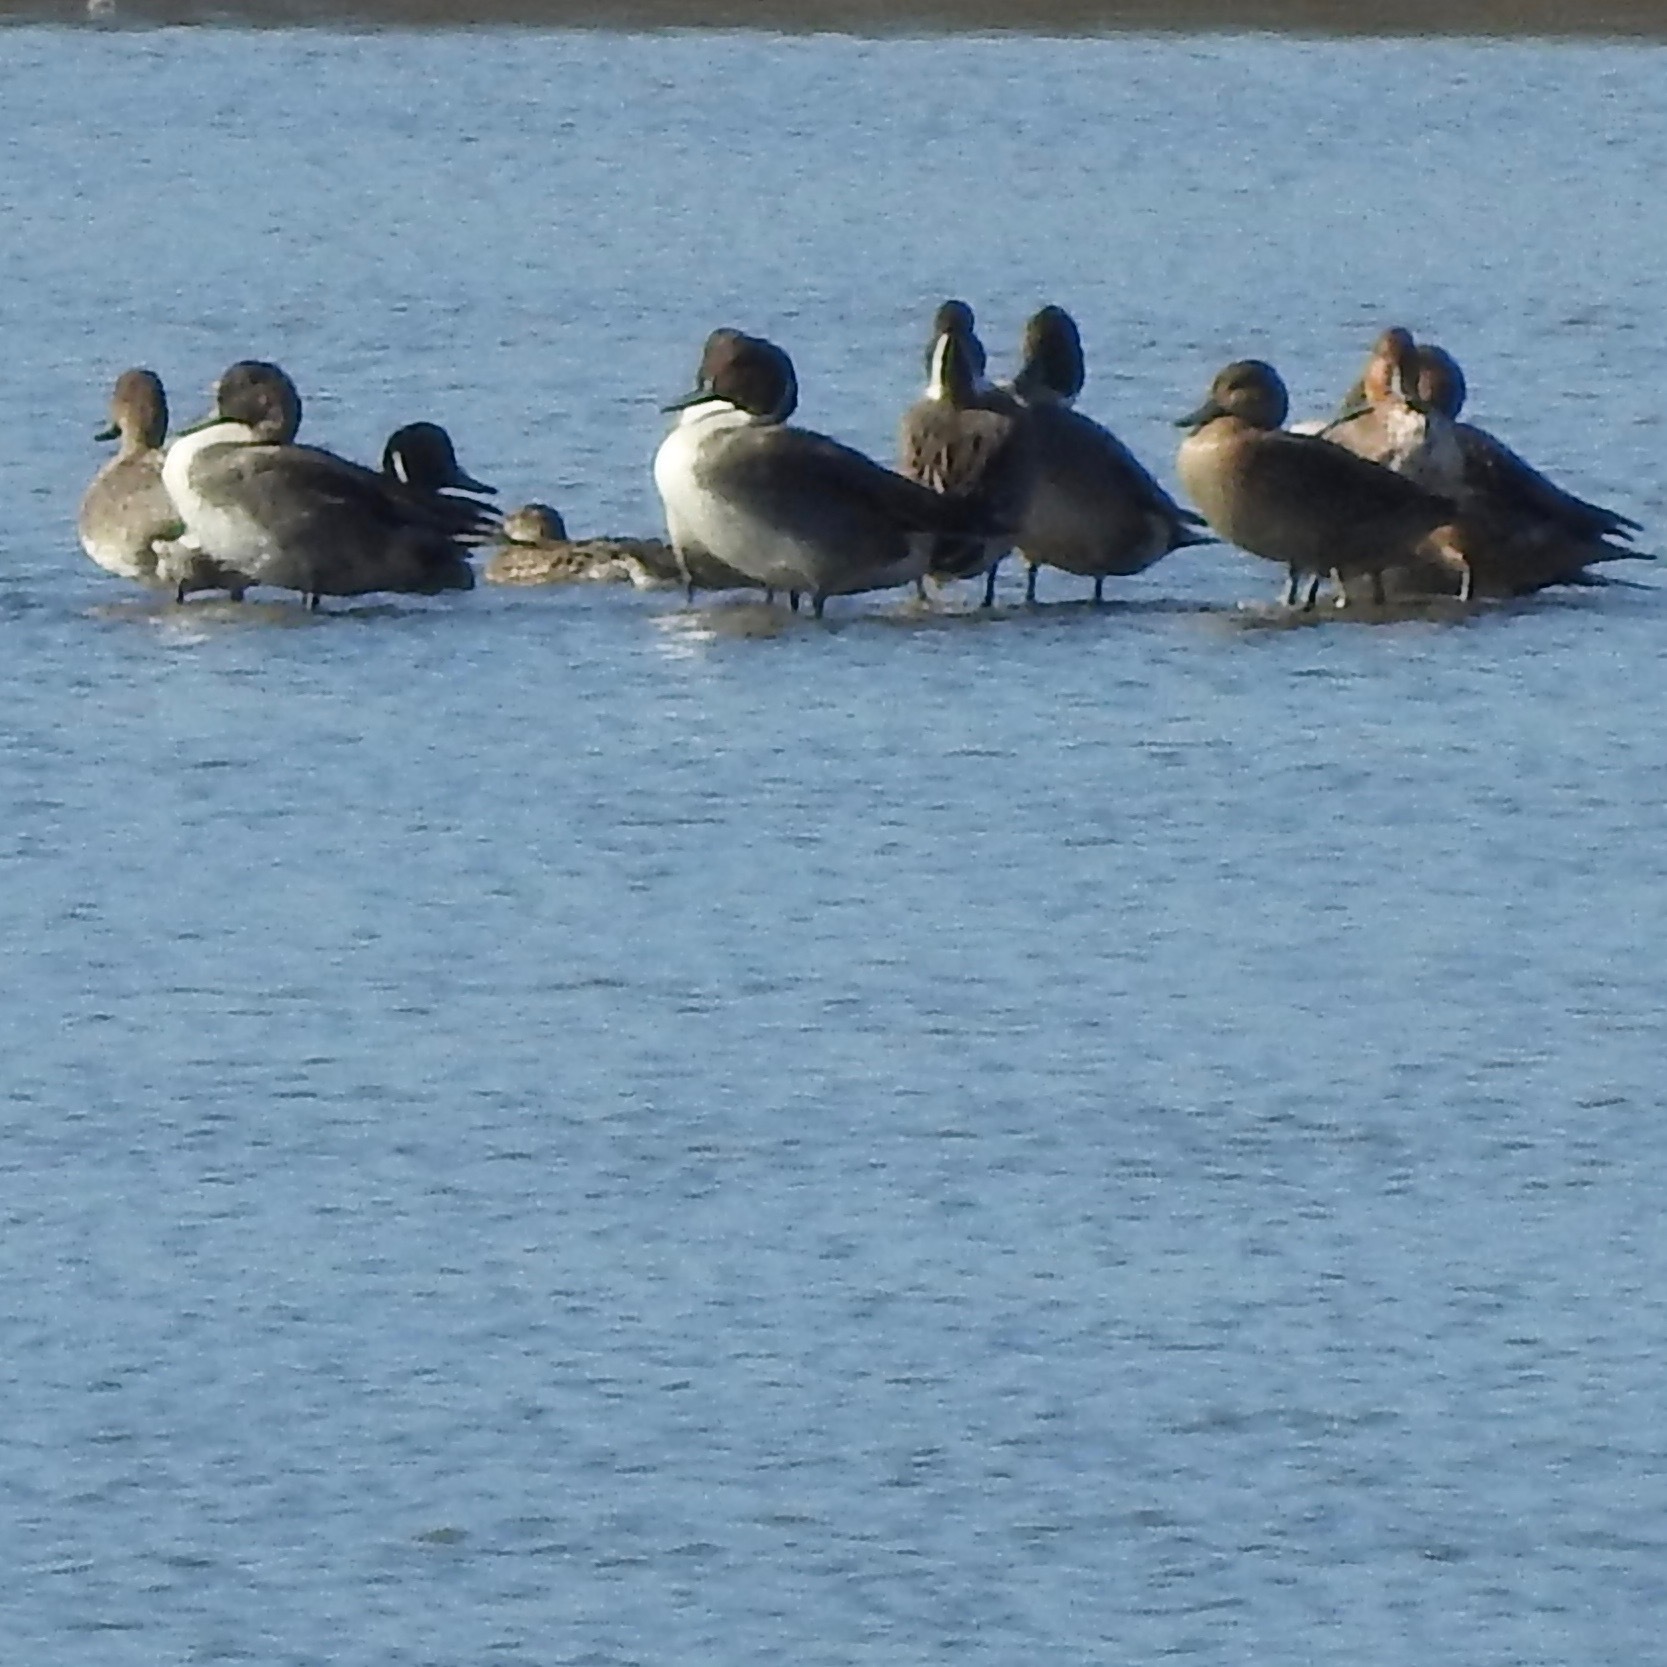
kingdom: Animalia
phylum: Chordata
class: Aves
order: Anseriformes
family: Anatidae
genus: Anas
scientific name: Anas acuta
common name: Northern pintail
